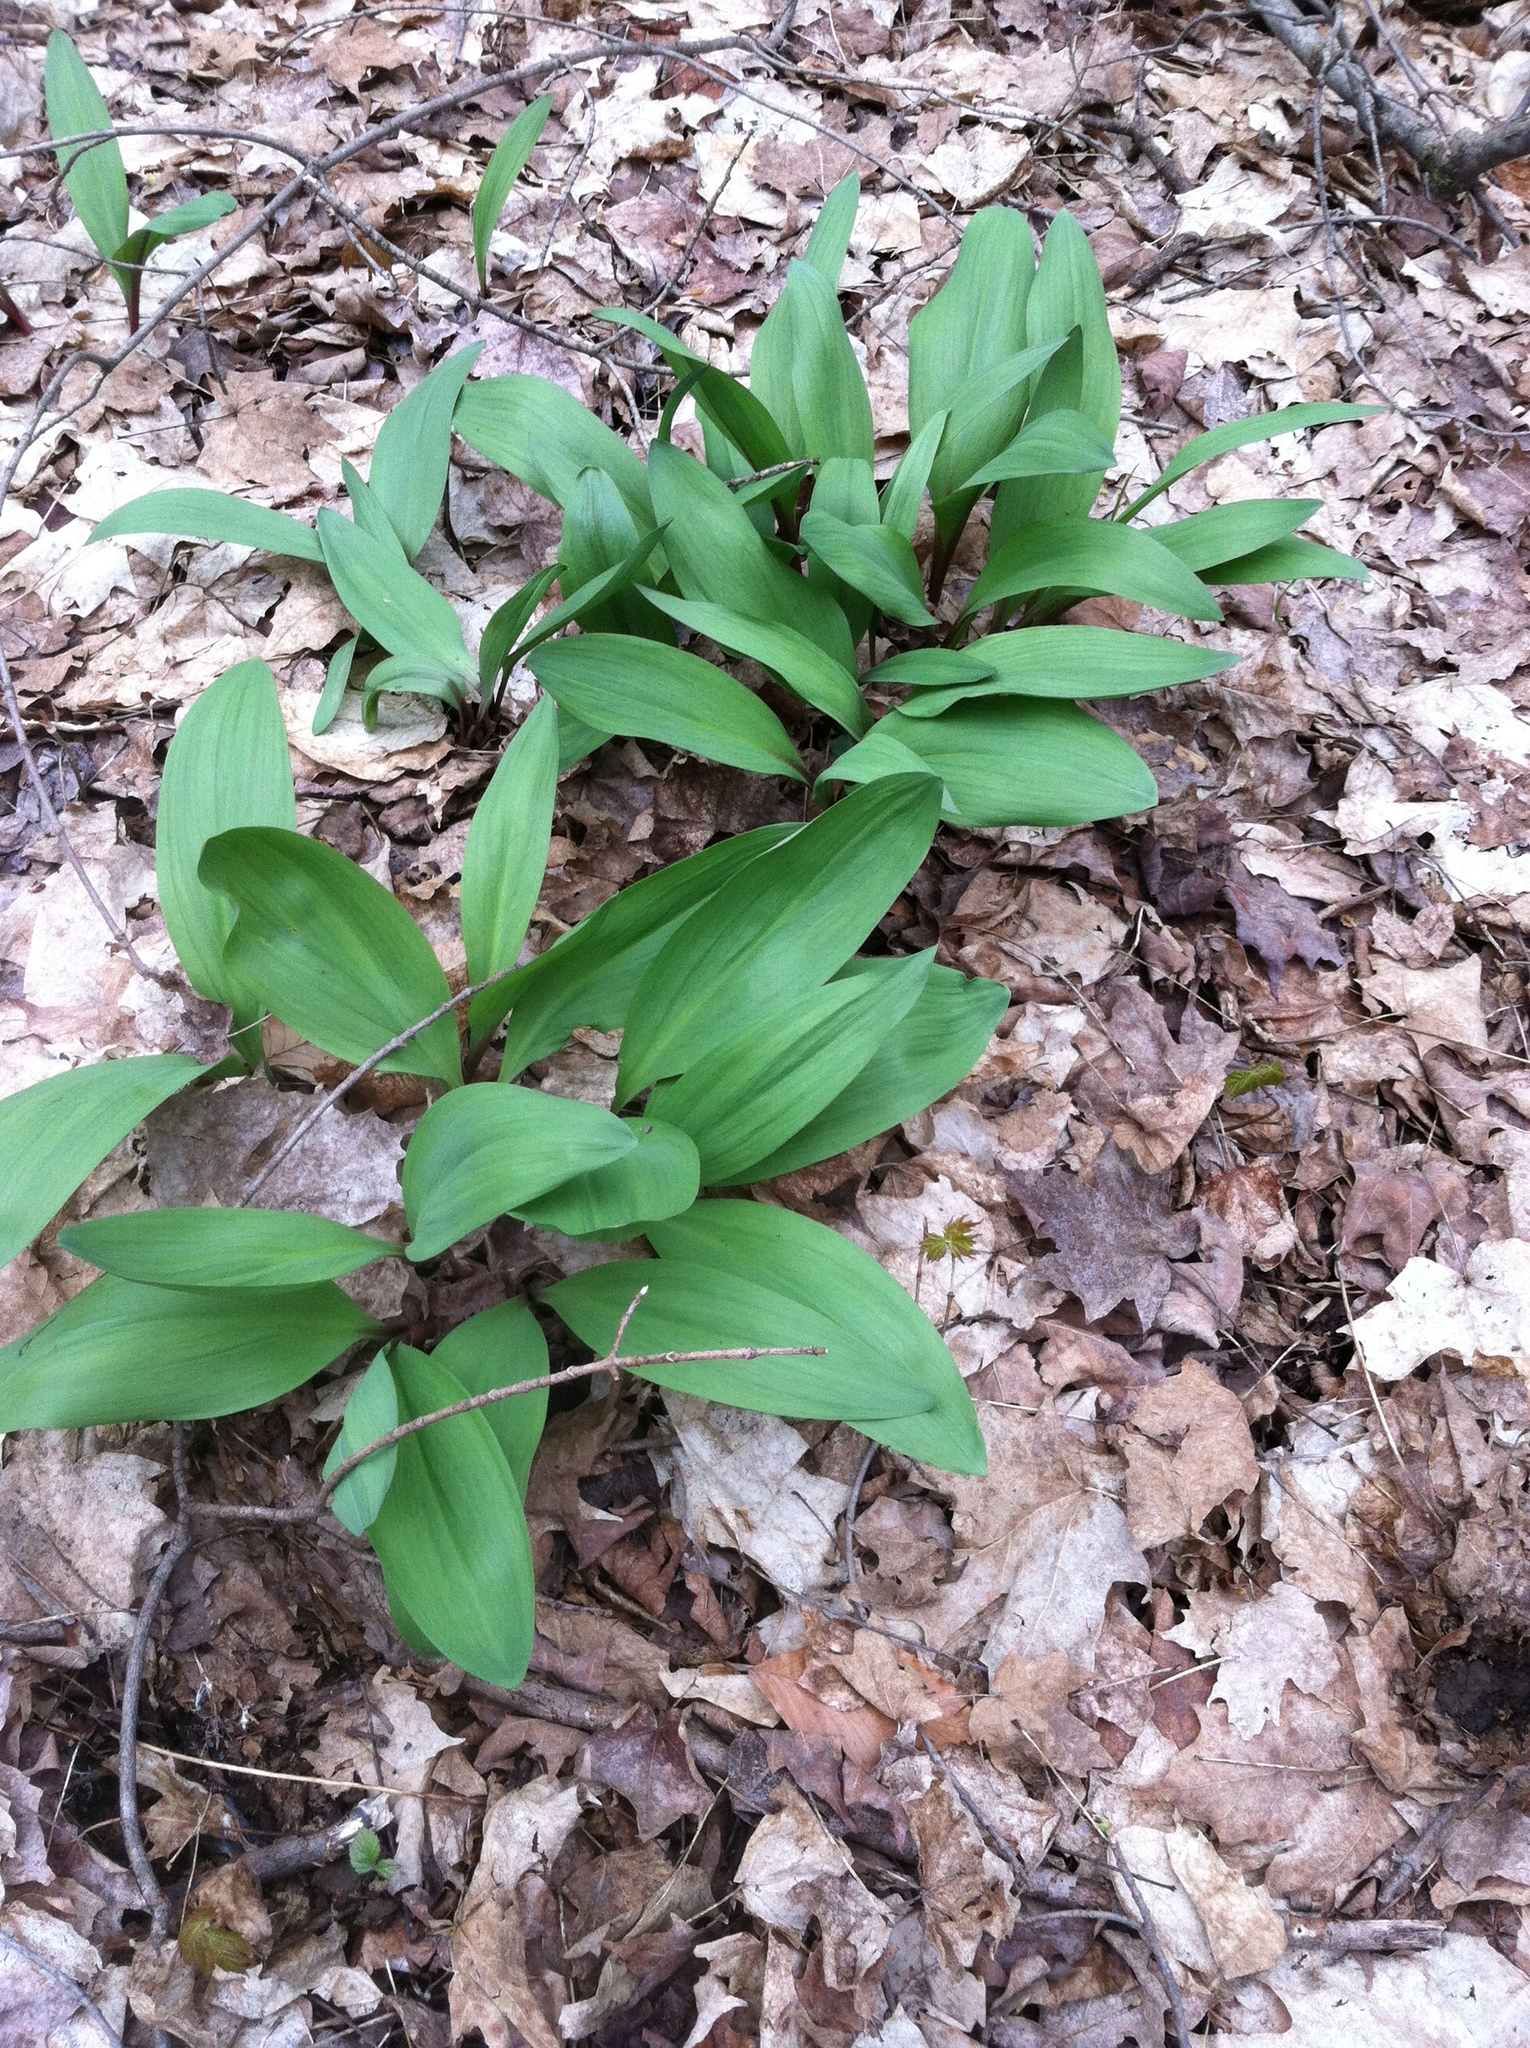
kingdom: Plantae
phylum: Tracheophyta
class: Liliopsida
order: Asparagales
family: Amaryllidaceae
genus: Allium
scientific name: Allium tricoccum
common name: Ramp
